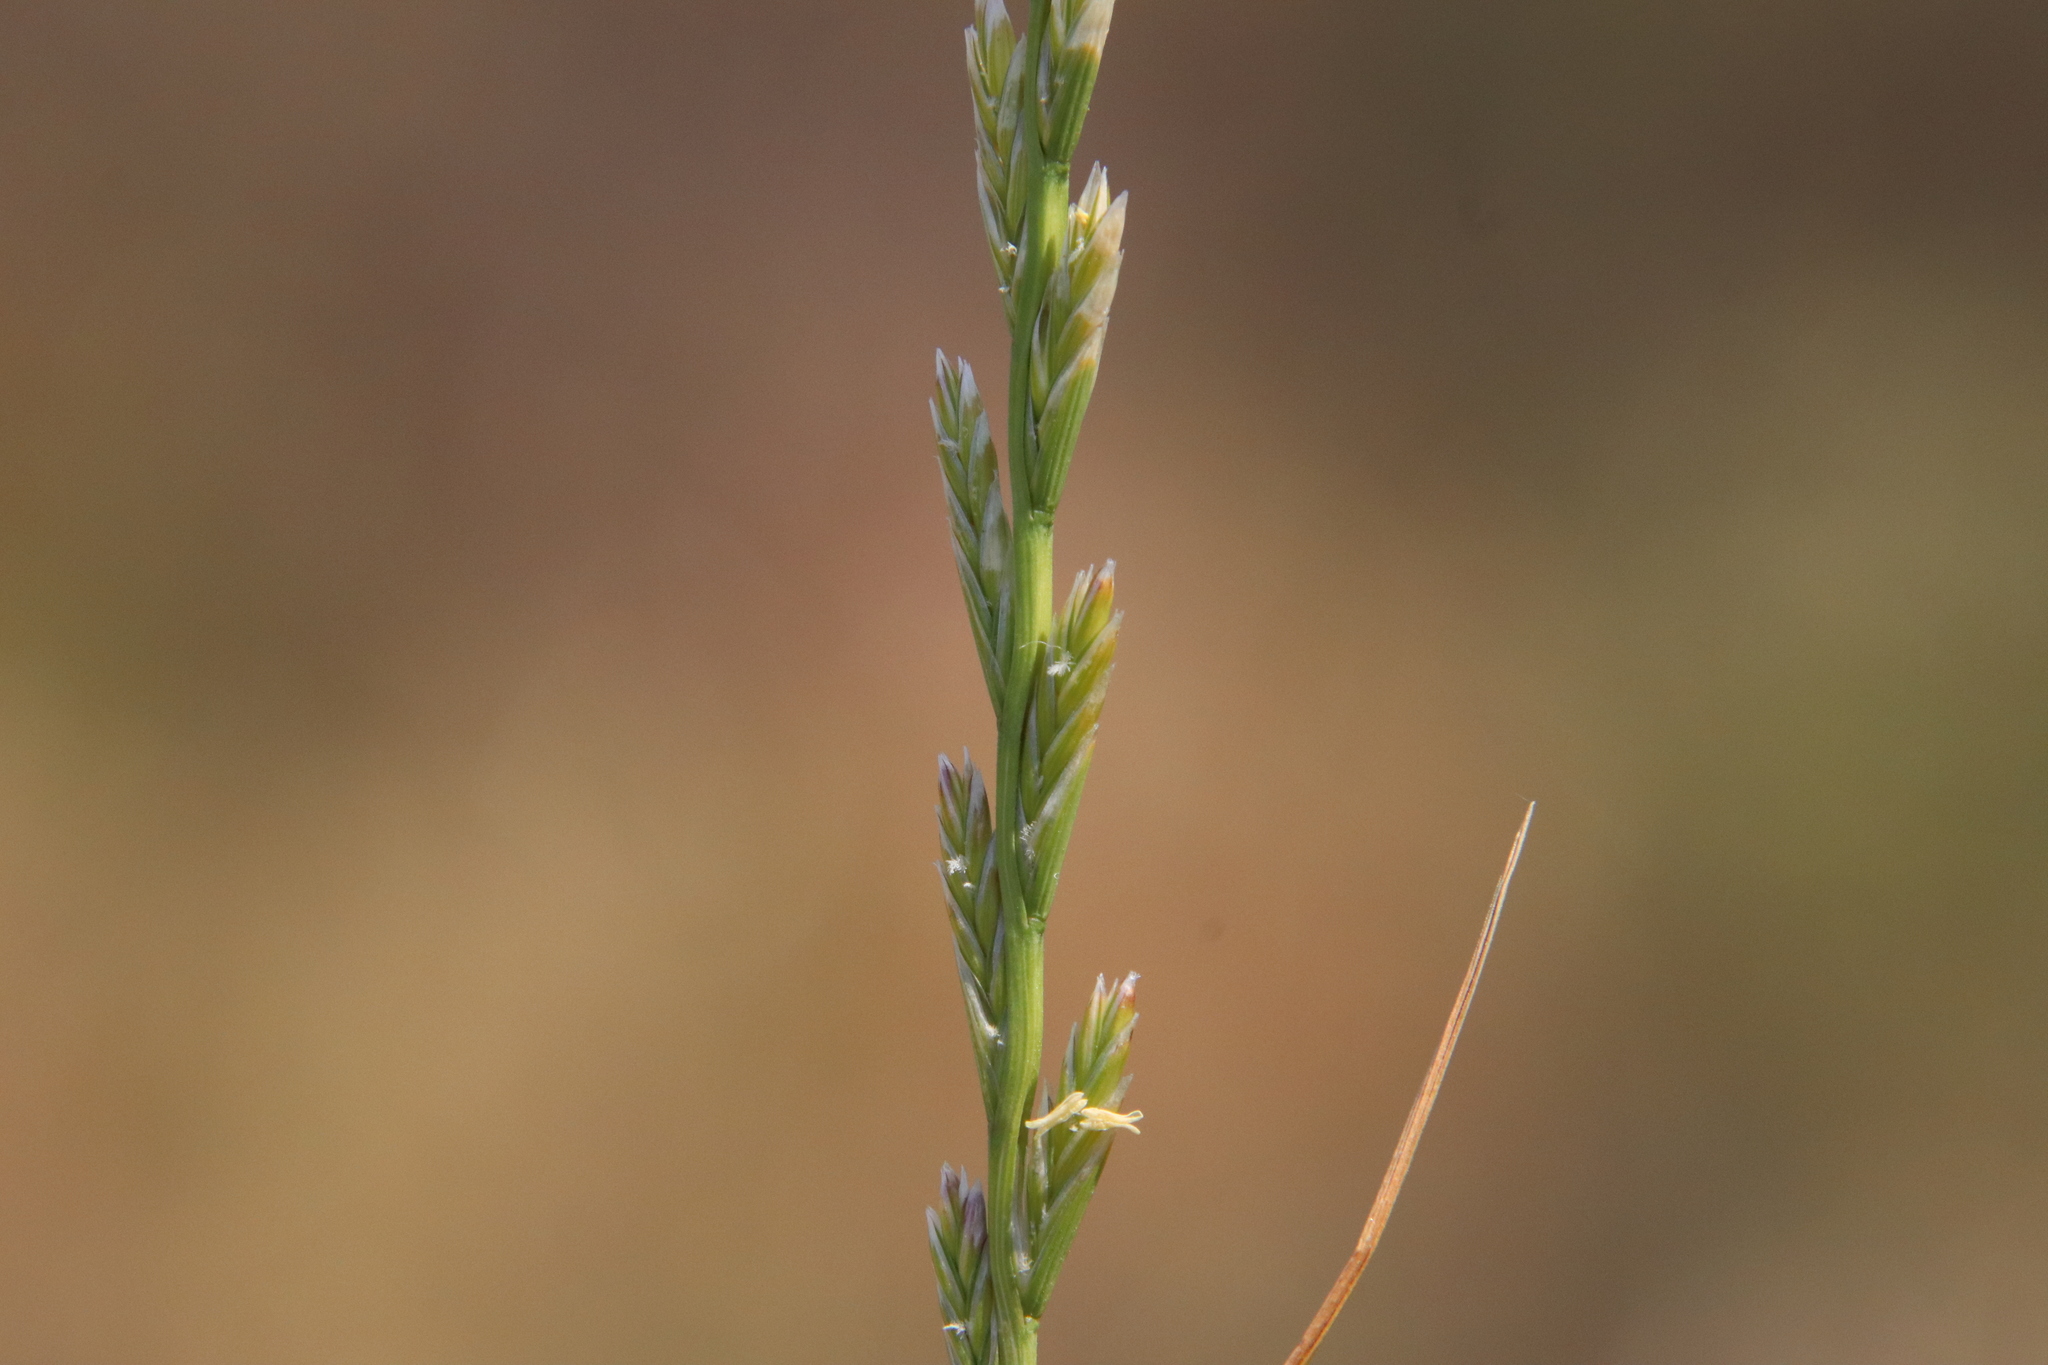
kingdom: Plantae
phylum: Tracheophyta
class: Liliopsida
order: Poales
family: Poaceae
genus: Lolium
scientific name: Lolium perenne
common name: Perennial ryegrass
